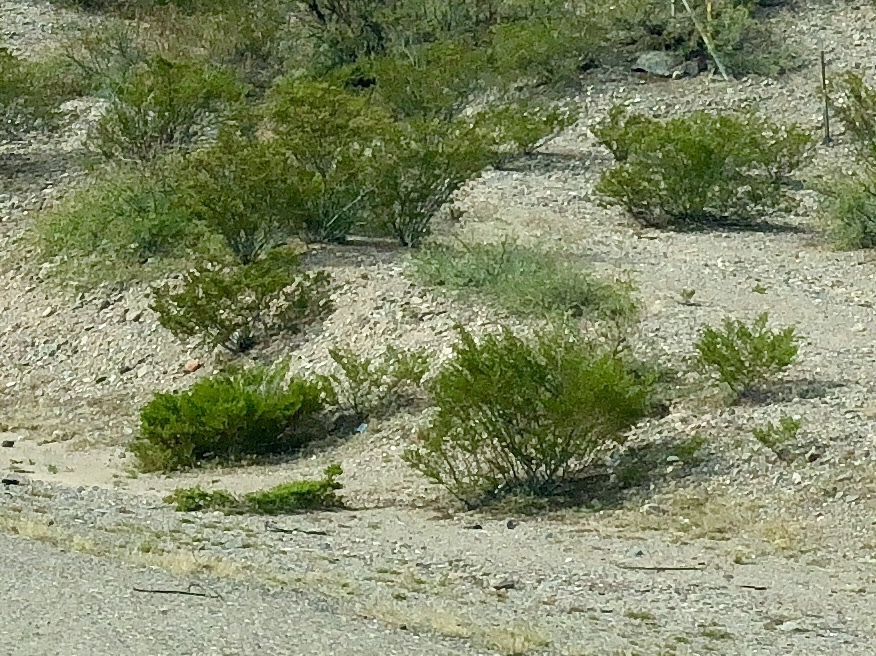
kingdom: Plantae
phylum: Tracheophyta
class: Magnoliopsida
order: Zygophyllales
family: Zygophyllaceae
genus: Larrea
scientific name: Larrea tridentata
